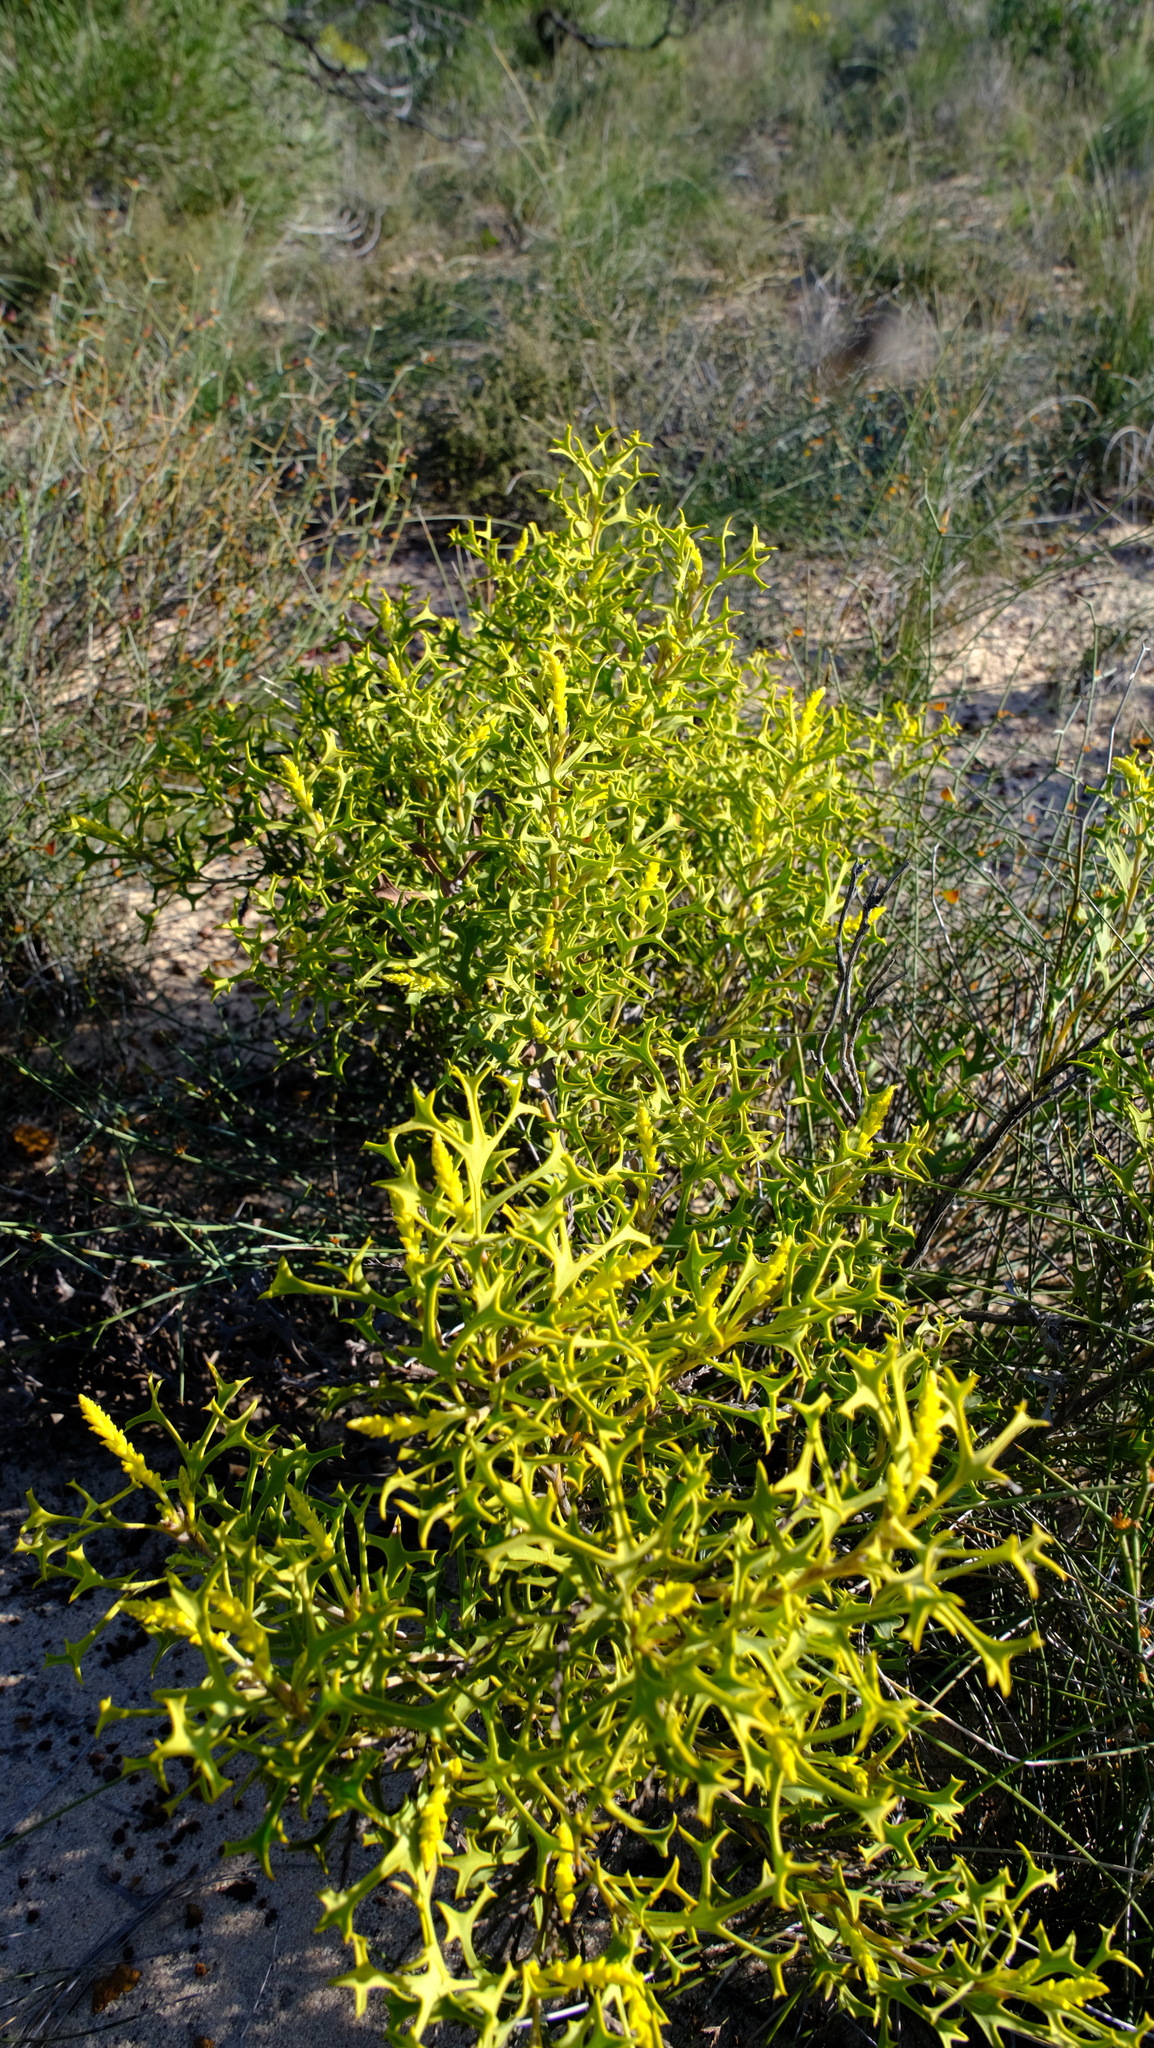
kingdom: Plantae
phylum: Tracheophyta
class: Magnoliopsida
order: Proteales
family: Proteaceae
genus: Synaphea
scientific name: Synaphea spinulosa
